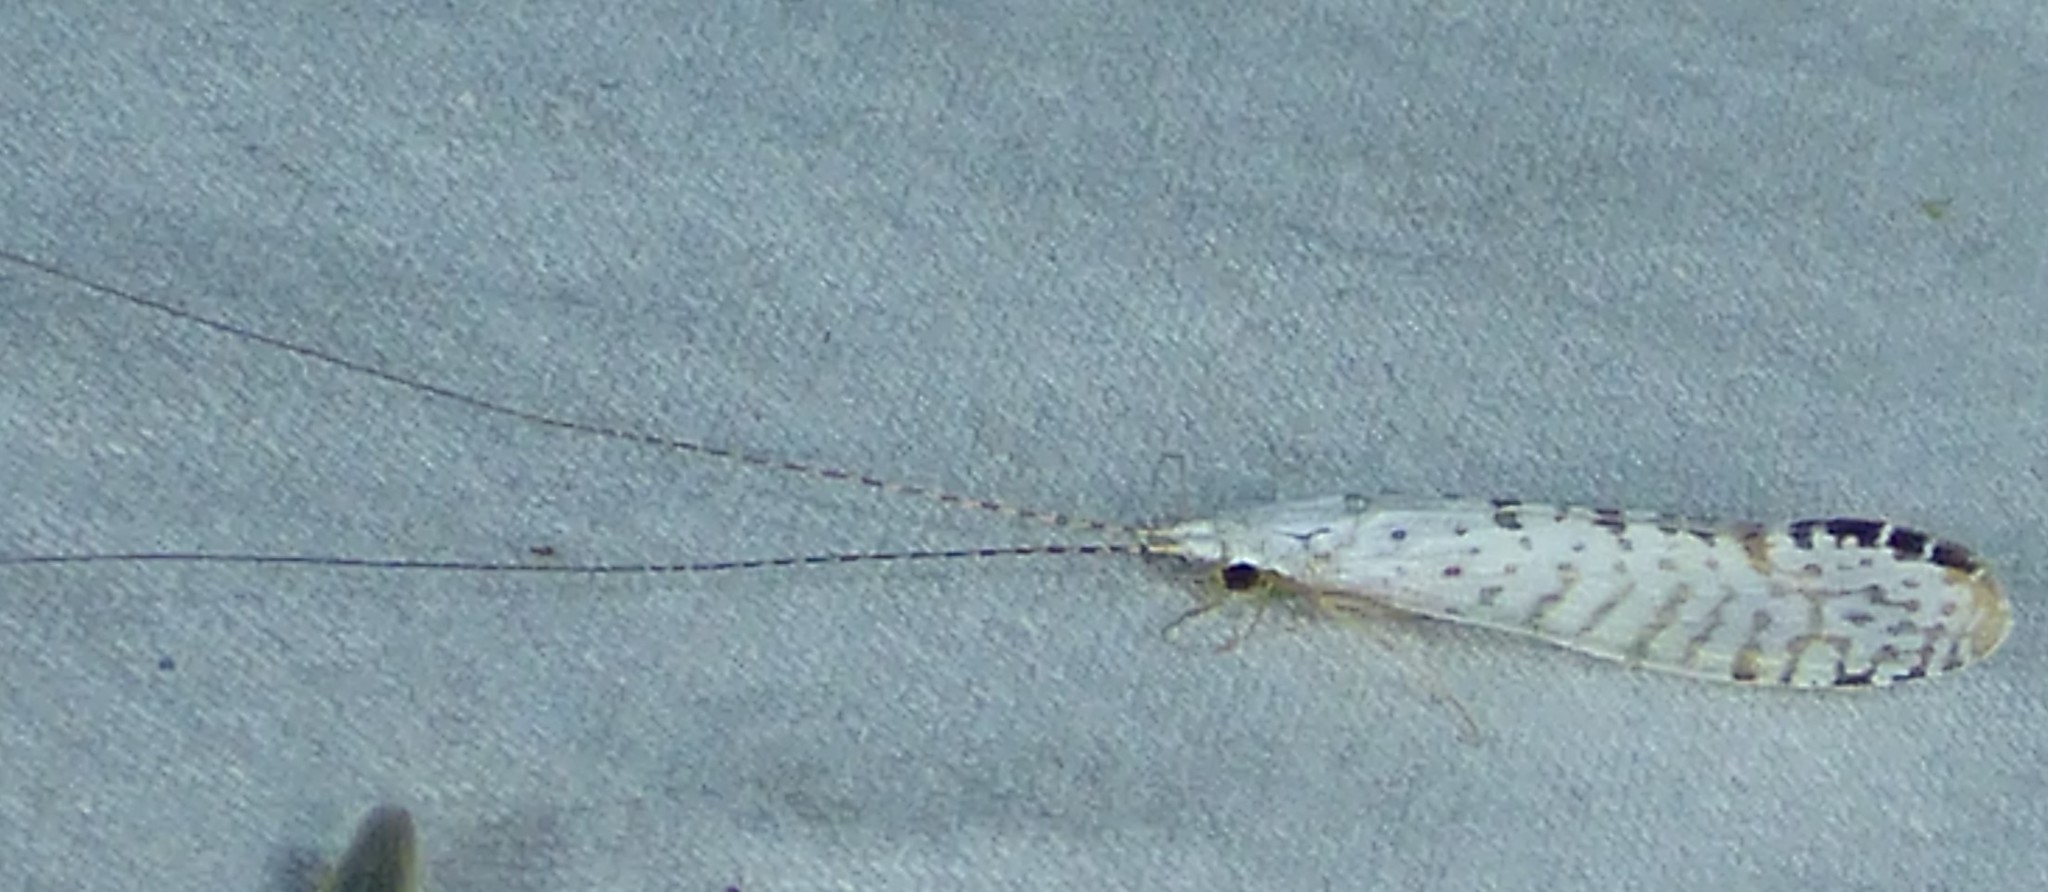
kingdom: Animalia
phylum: Arthropoda
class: Insecta
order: Trichoptera
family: Leptoceridae
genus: Nectopsyche
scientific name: Nectopsyche candida
